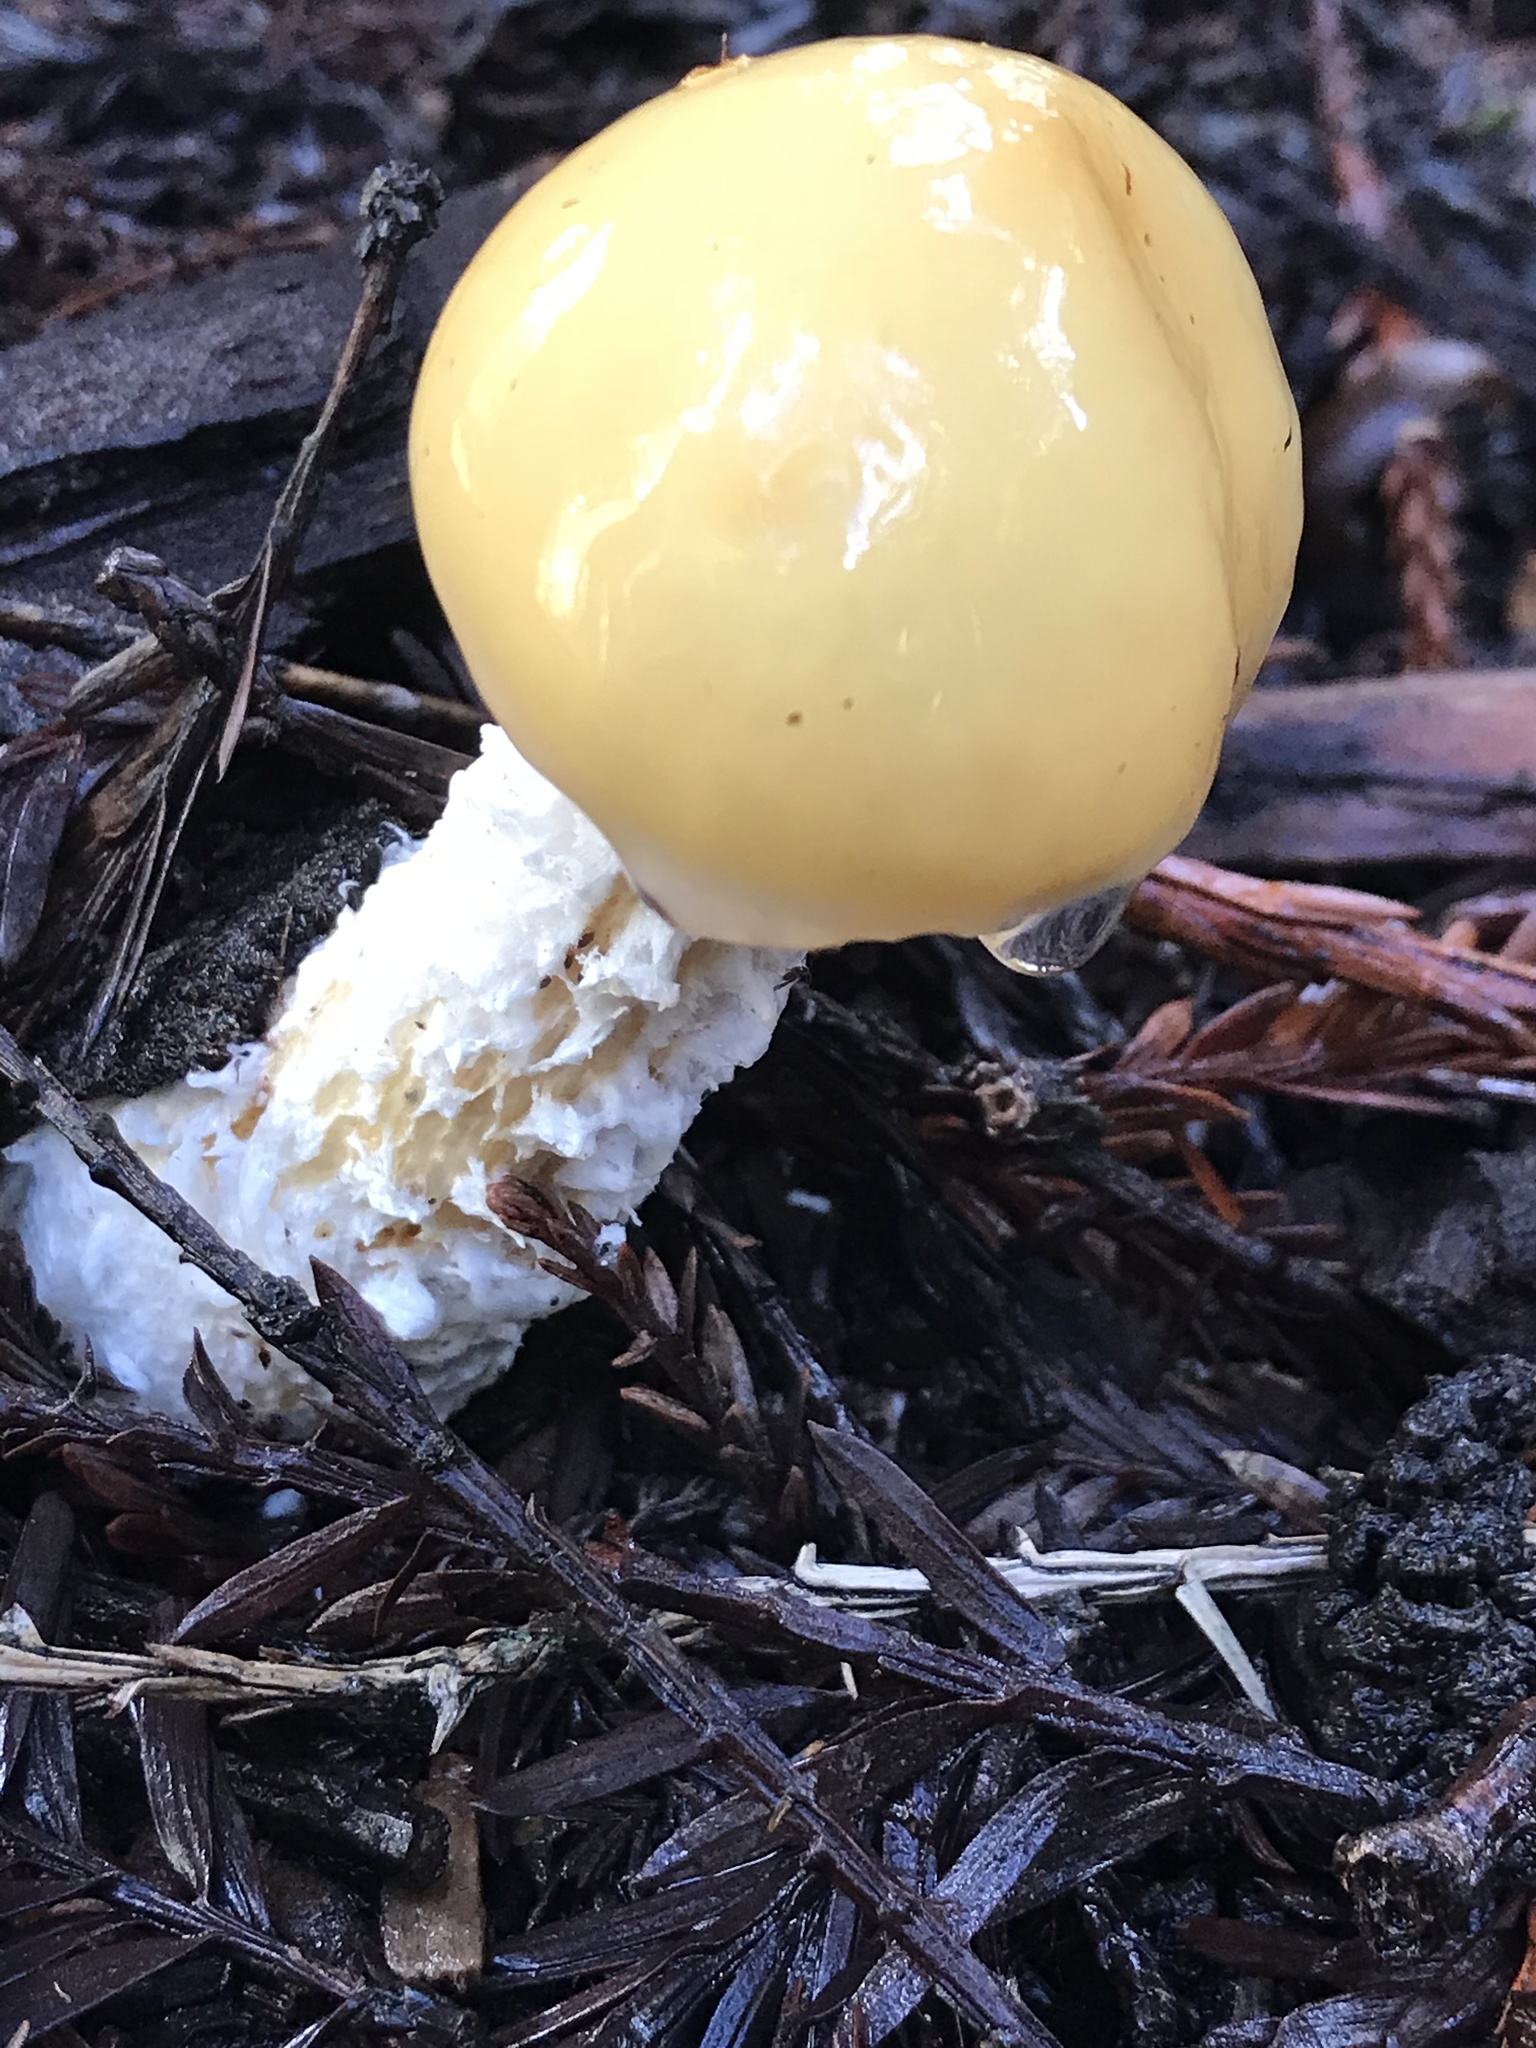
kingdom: Fungi
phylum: Basidiomycota
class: Agaricomycetes
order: Agaricales
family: Strophariaceae
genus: Stropharia
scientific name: Stropharia ambigua
